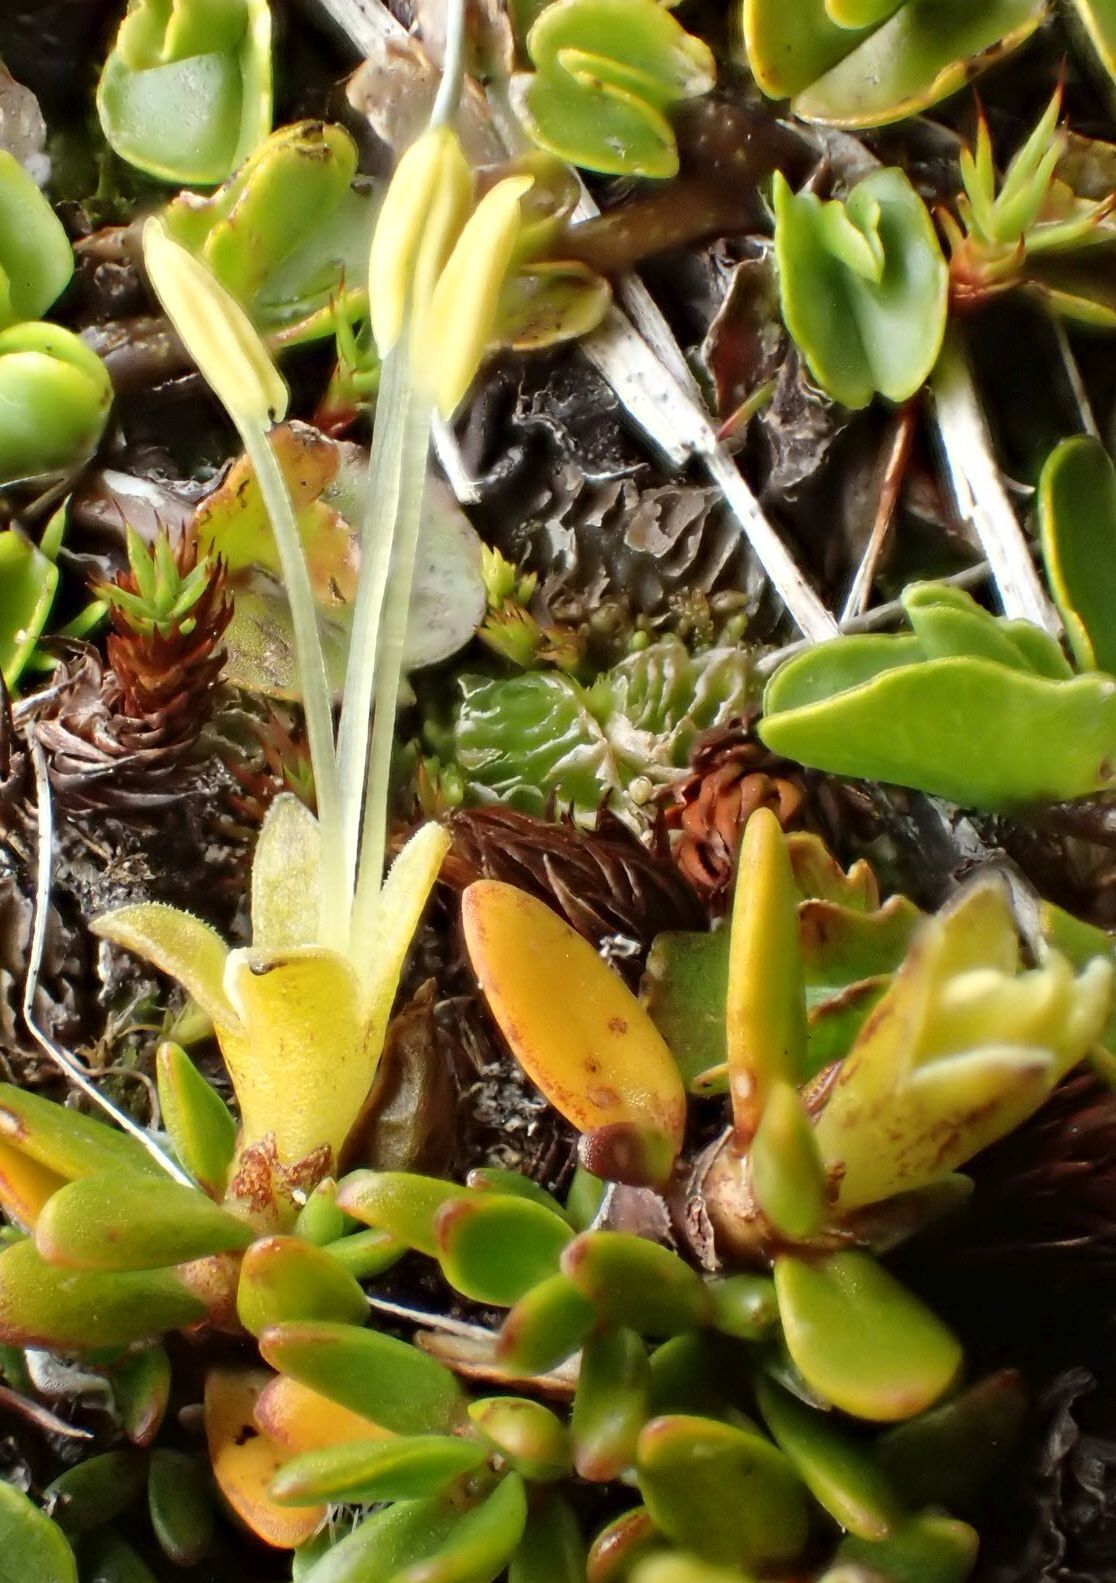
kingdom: Plantae
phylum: Tracheophyta
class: Magnoliopsida
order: Gentianales
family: Rubiaceae
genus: Coprosma
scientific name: Coprosma niphophila
